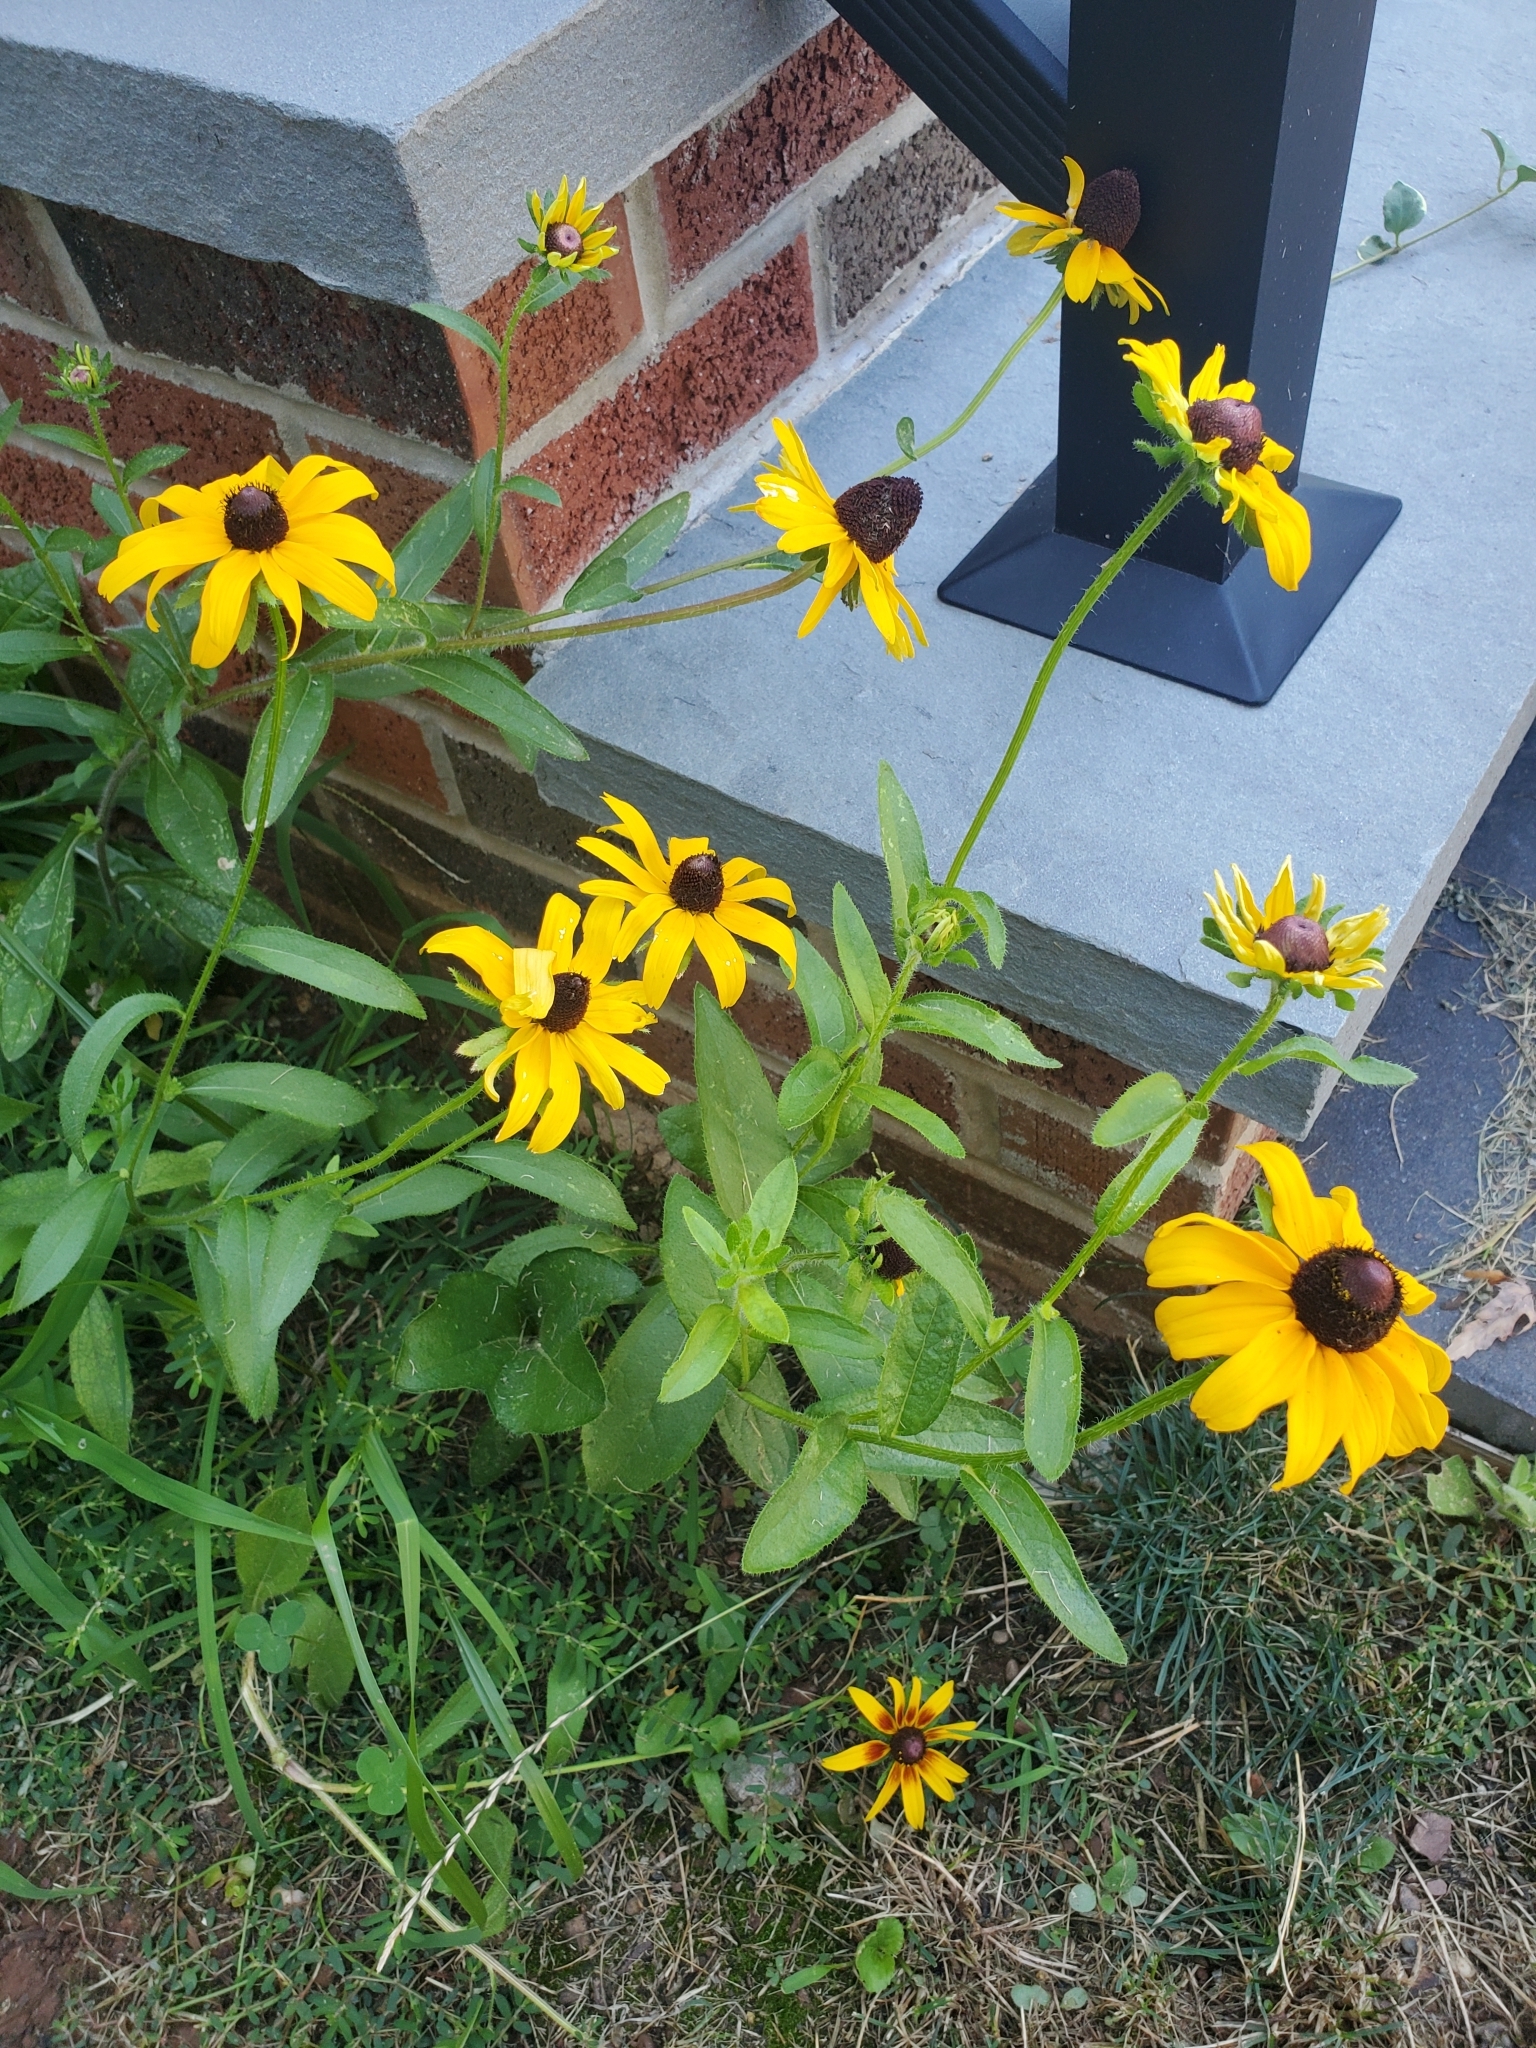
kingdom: Plantae
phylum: Tracheophyta
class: Magnoliopsida
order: Asterales
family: Asteraceae
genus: Rudbeckia
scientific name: Rudbeckia hirta
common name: Black-eyed-susan
